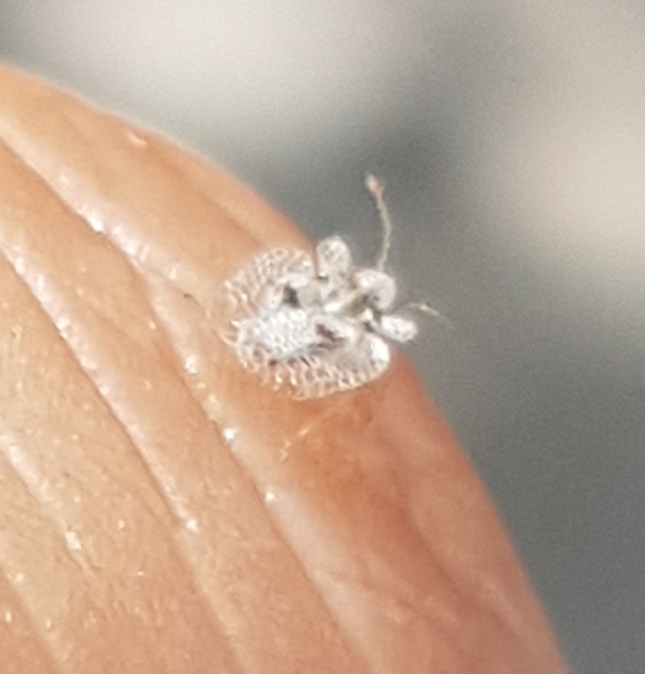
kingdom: Animalia
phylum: Arthropoda
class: Insecta
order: Hemiptera
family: Tingidae
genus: Corythucha
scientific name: Corythucha ciliata
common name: Sycamore lace bug
